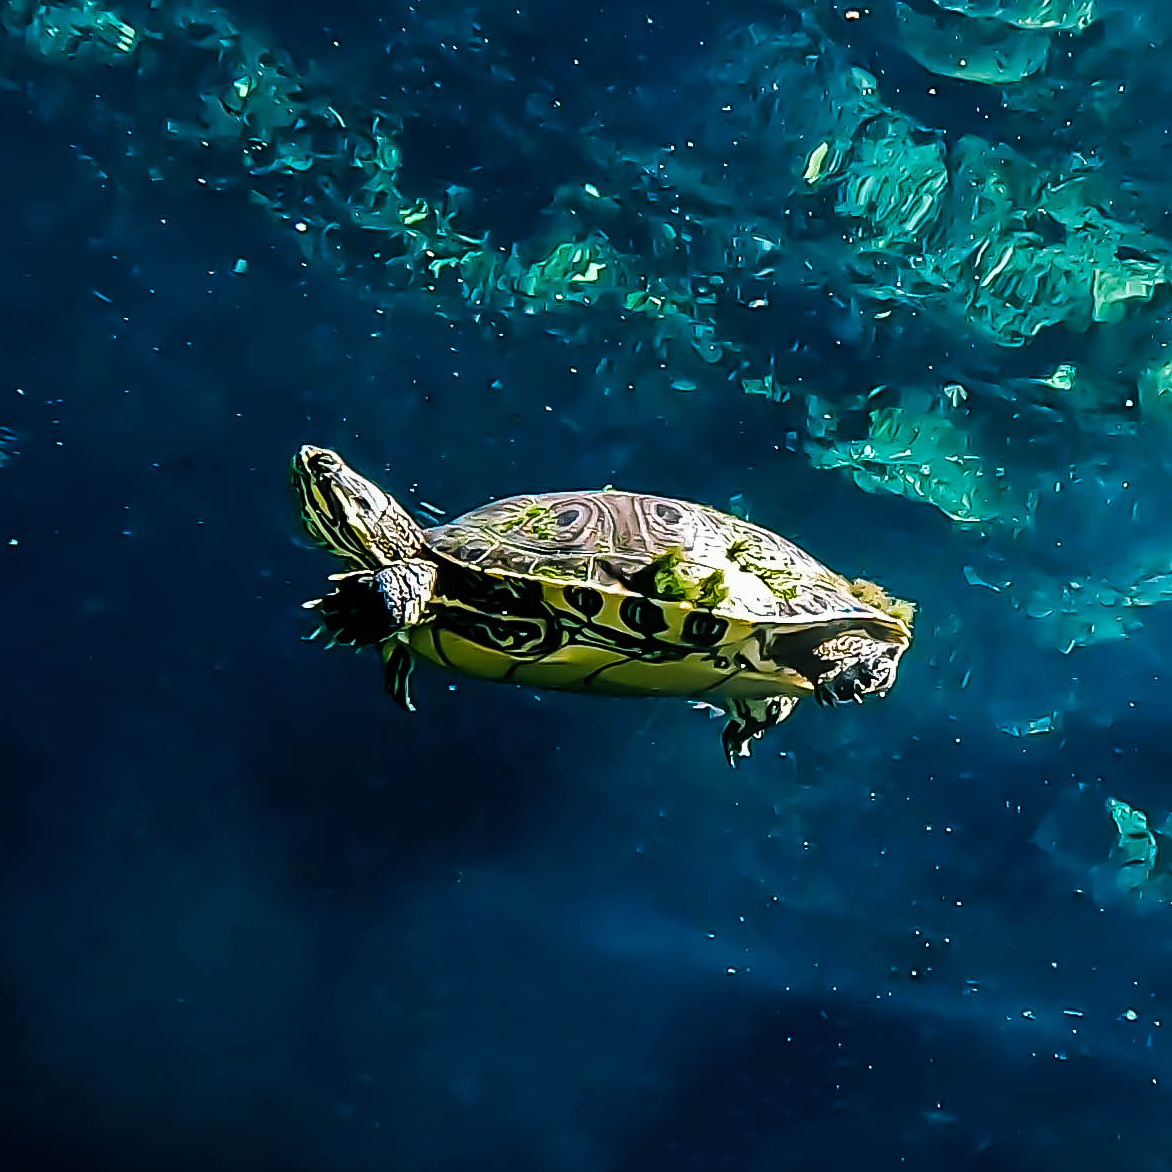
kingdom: Animalia
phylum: Chordata
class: Testudines
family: Emydidae
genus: Trachemys
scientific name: Trachemys venusta
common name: Mesoamerican slider
